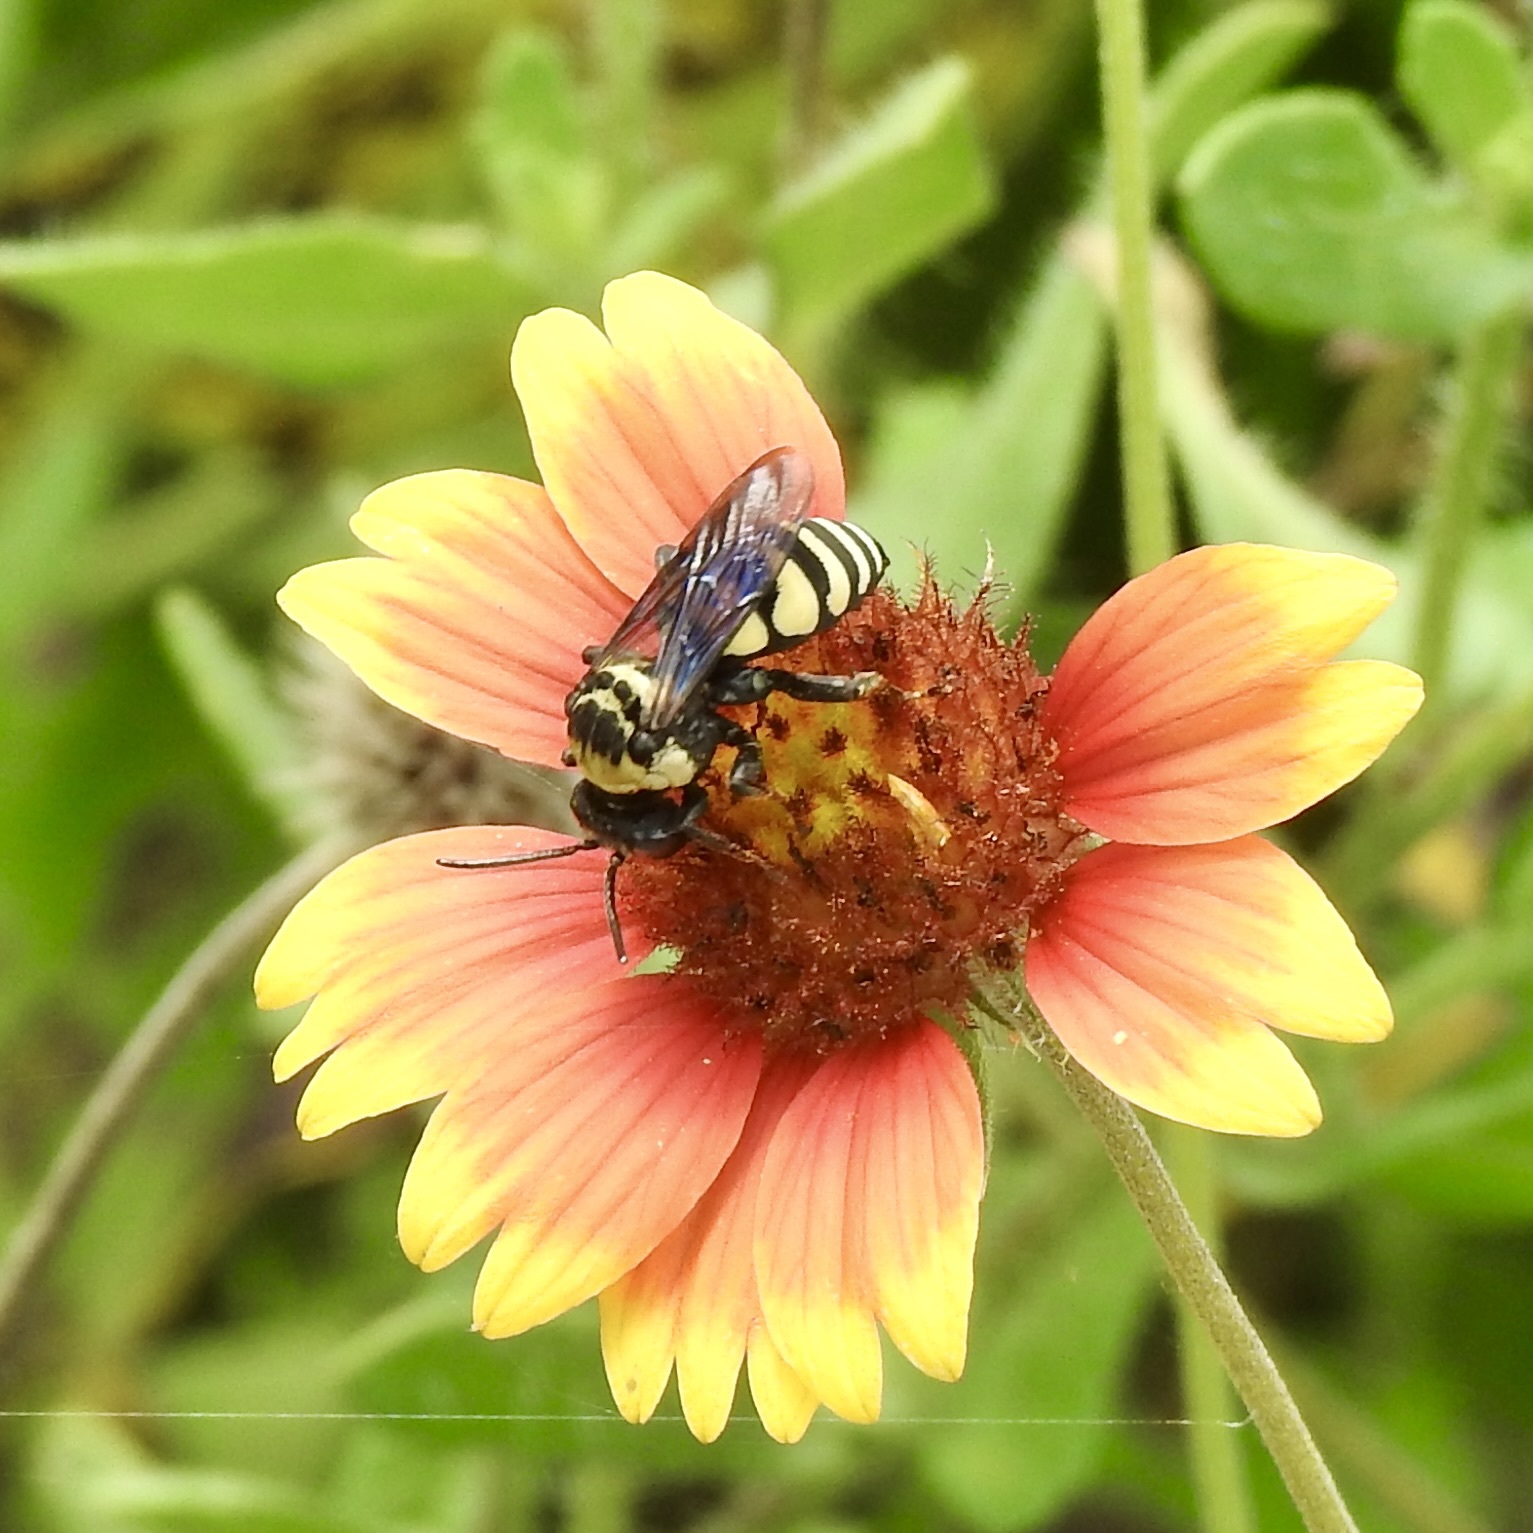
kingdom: Animalia
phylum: Arthropoda
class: Insecta
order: Hymenoptera
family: Apidae
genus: Triepeolus
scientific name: Triepeolus concavus
